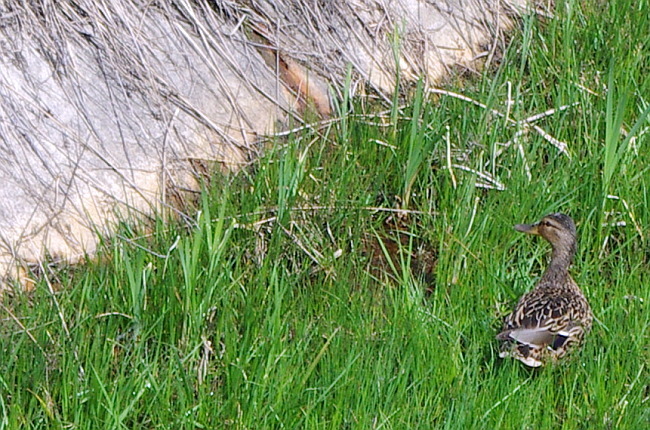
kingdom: Animalia
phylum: Chordata
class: Aves
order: Anseriformes
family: Anatidae
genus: Anas
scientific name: Anas platyrhynchos
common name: Mallard
